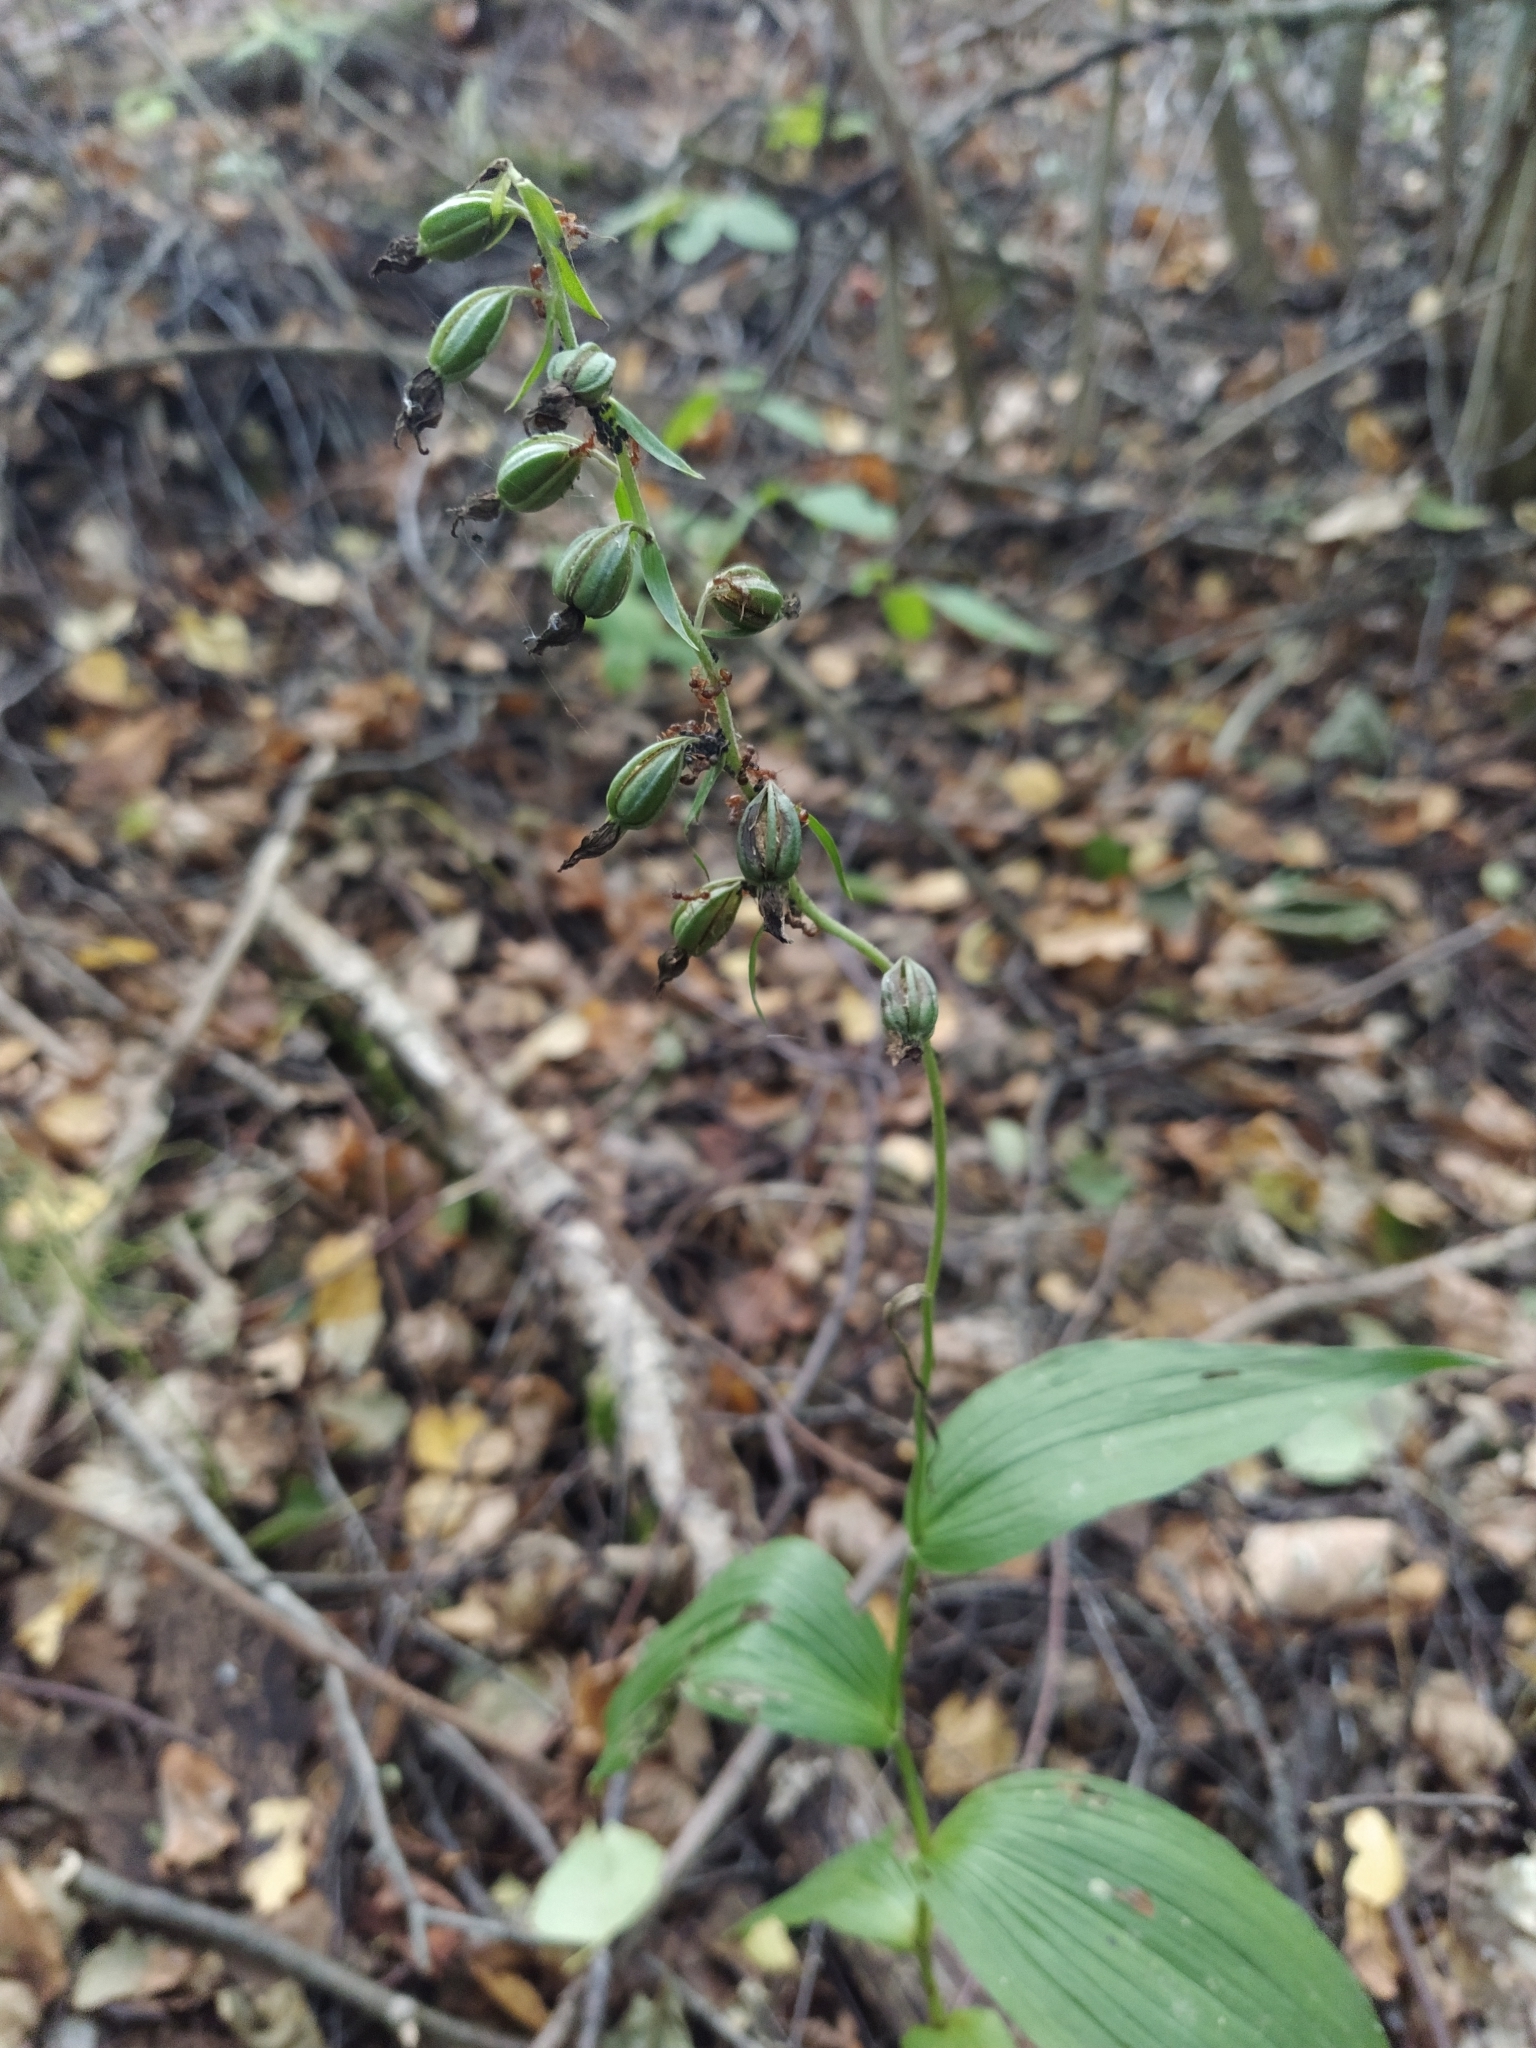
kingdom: Plantae
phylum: Tracheophyta
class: Liliopsida
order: Asparagales
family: Orchidaceae
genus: Epipactis
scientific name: Epipactis helleborine
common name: Broad-leaved helleborine
